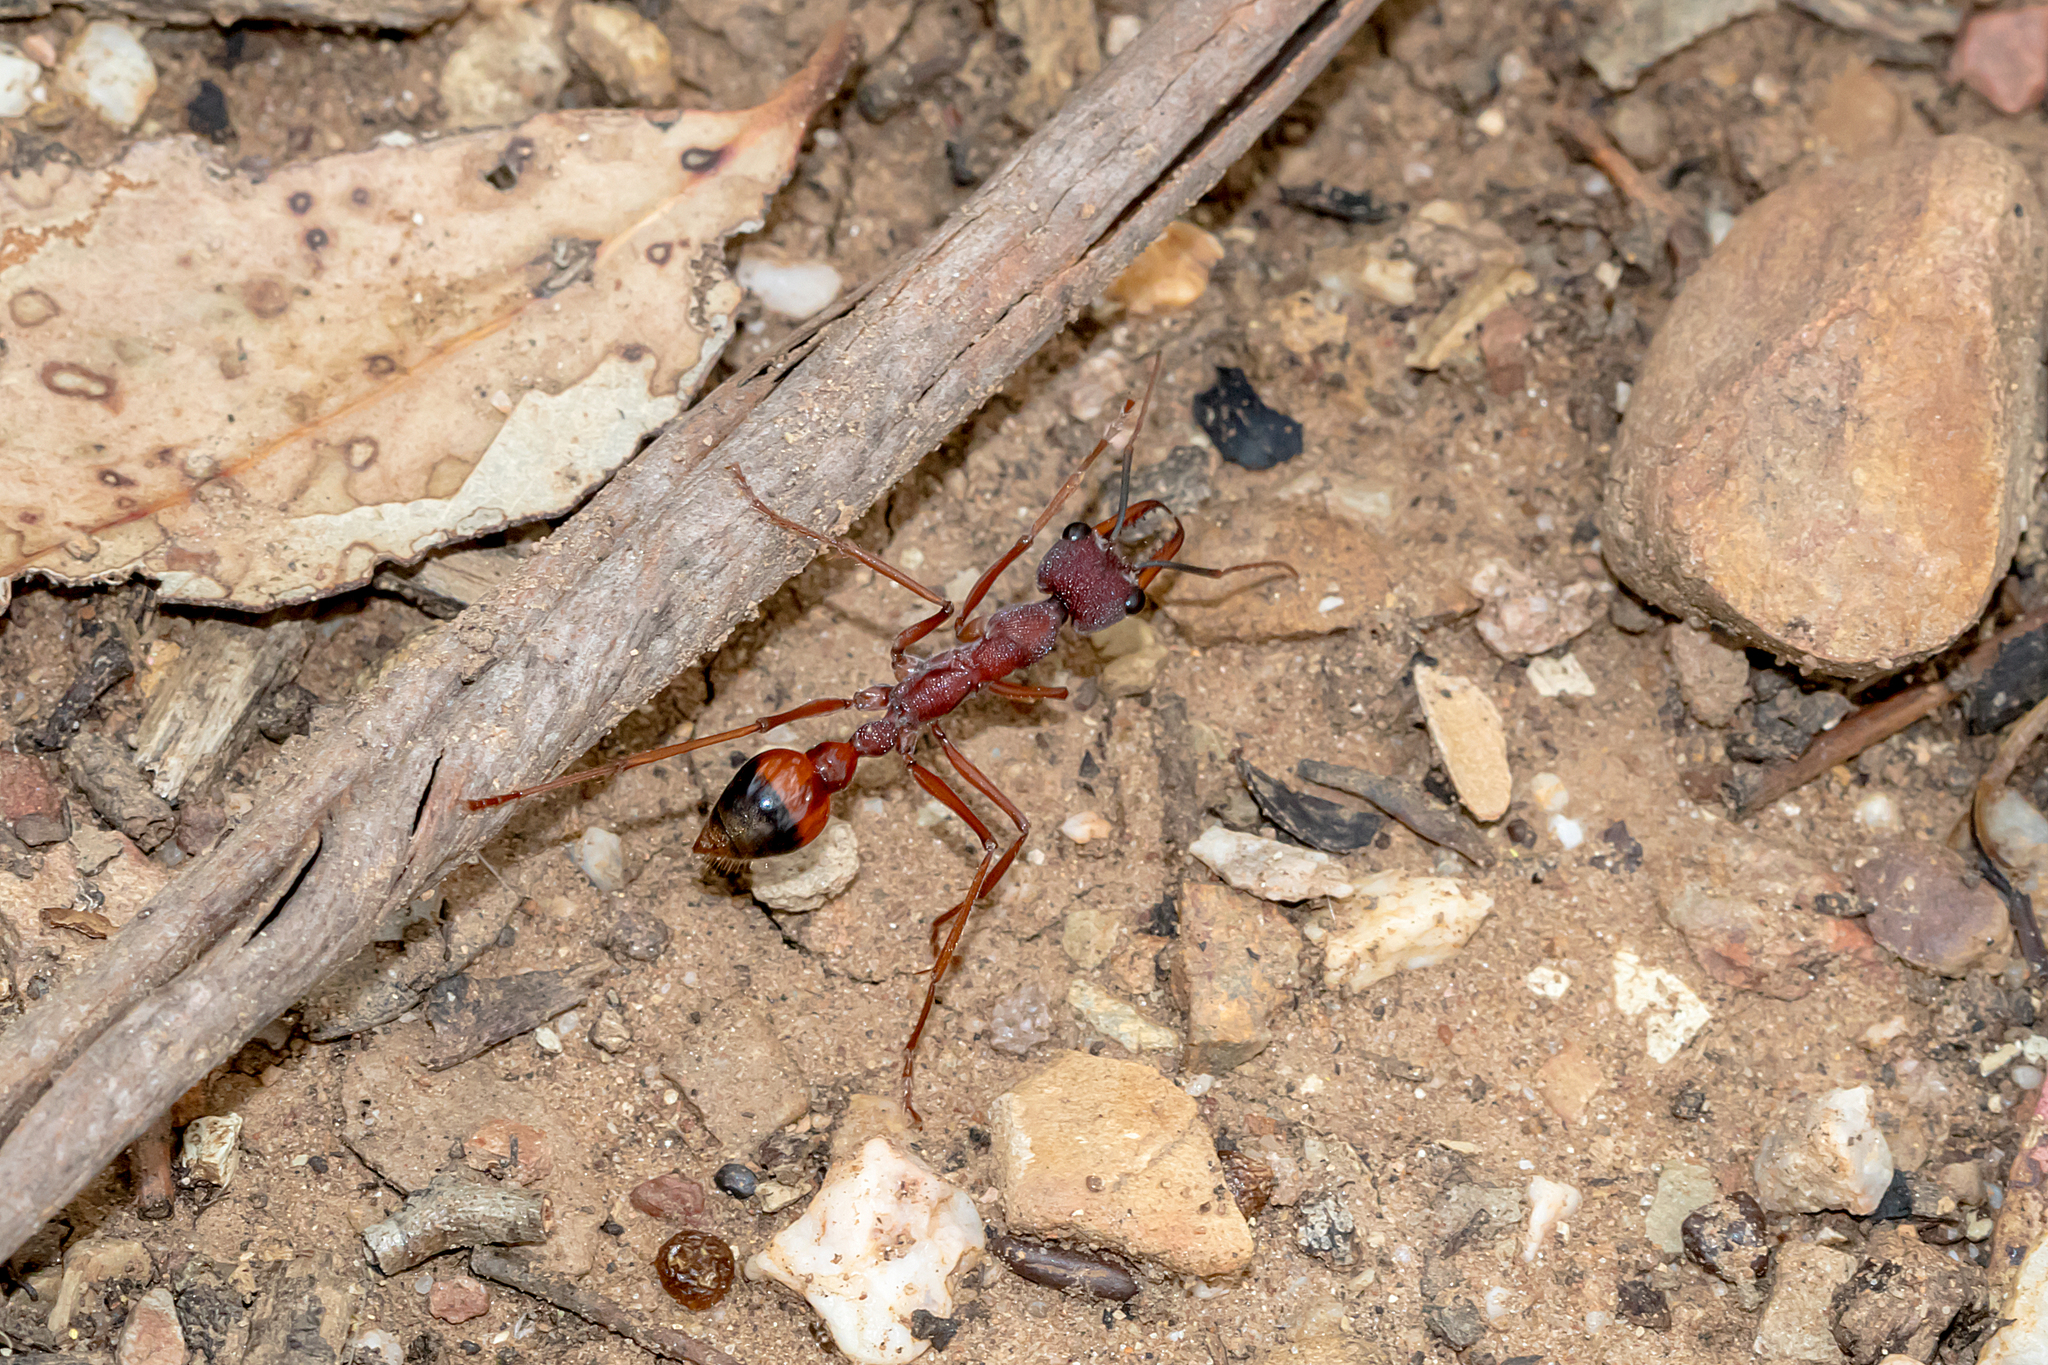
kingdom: Animalia
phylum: Arthropoda
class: Insecta
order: Hymenoptera
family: Formicidae
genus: Myrmecia
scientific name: Myrmecia nigriscapa
